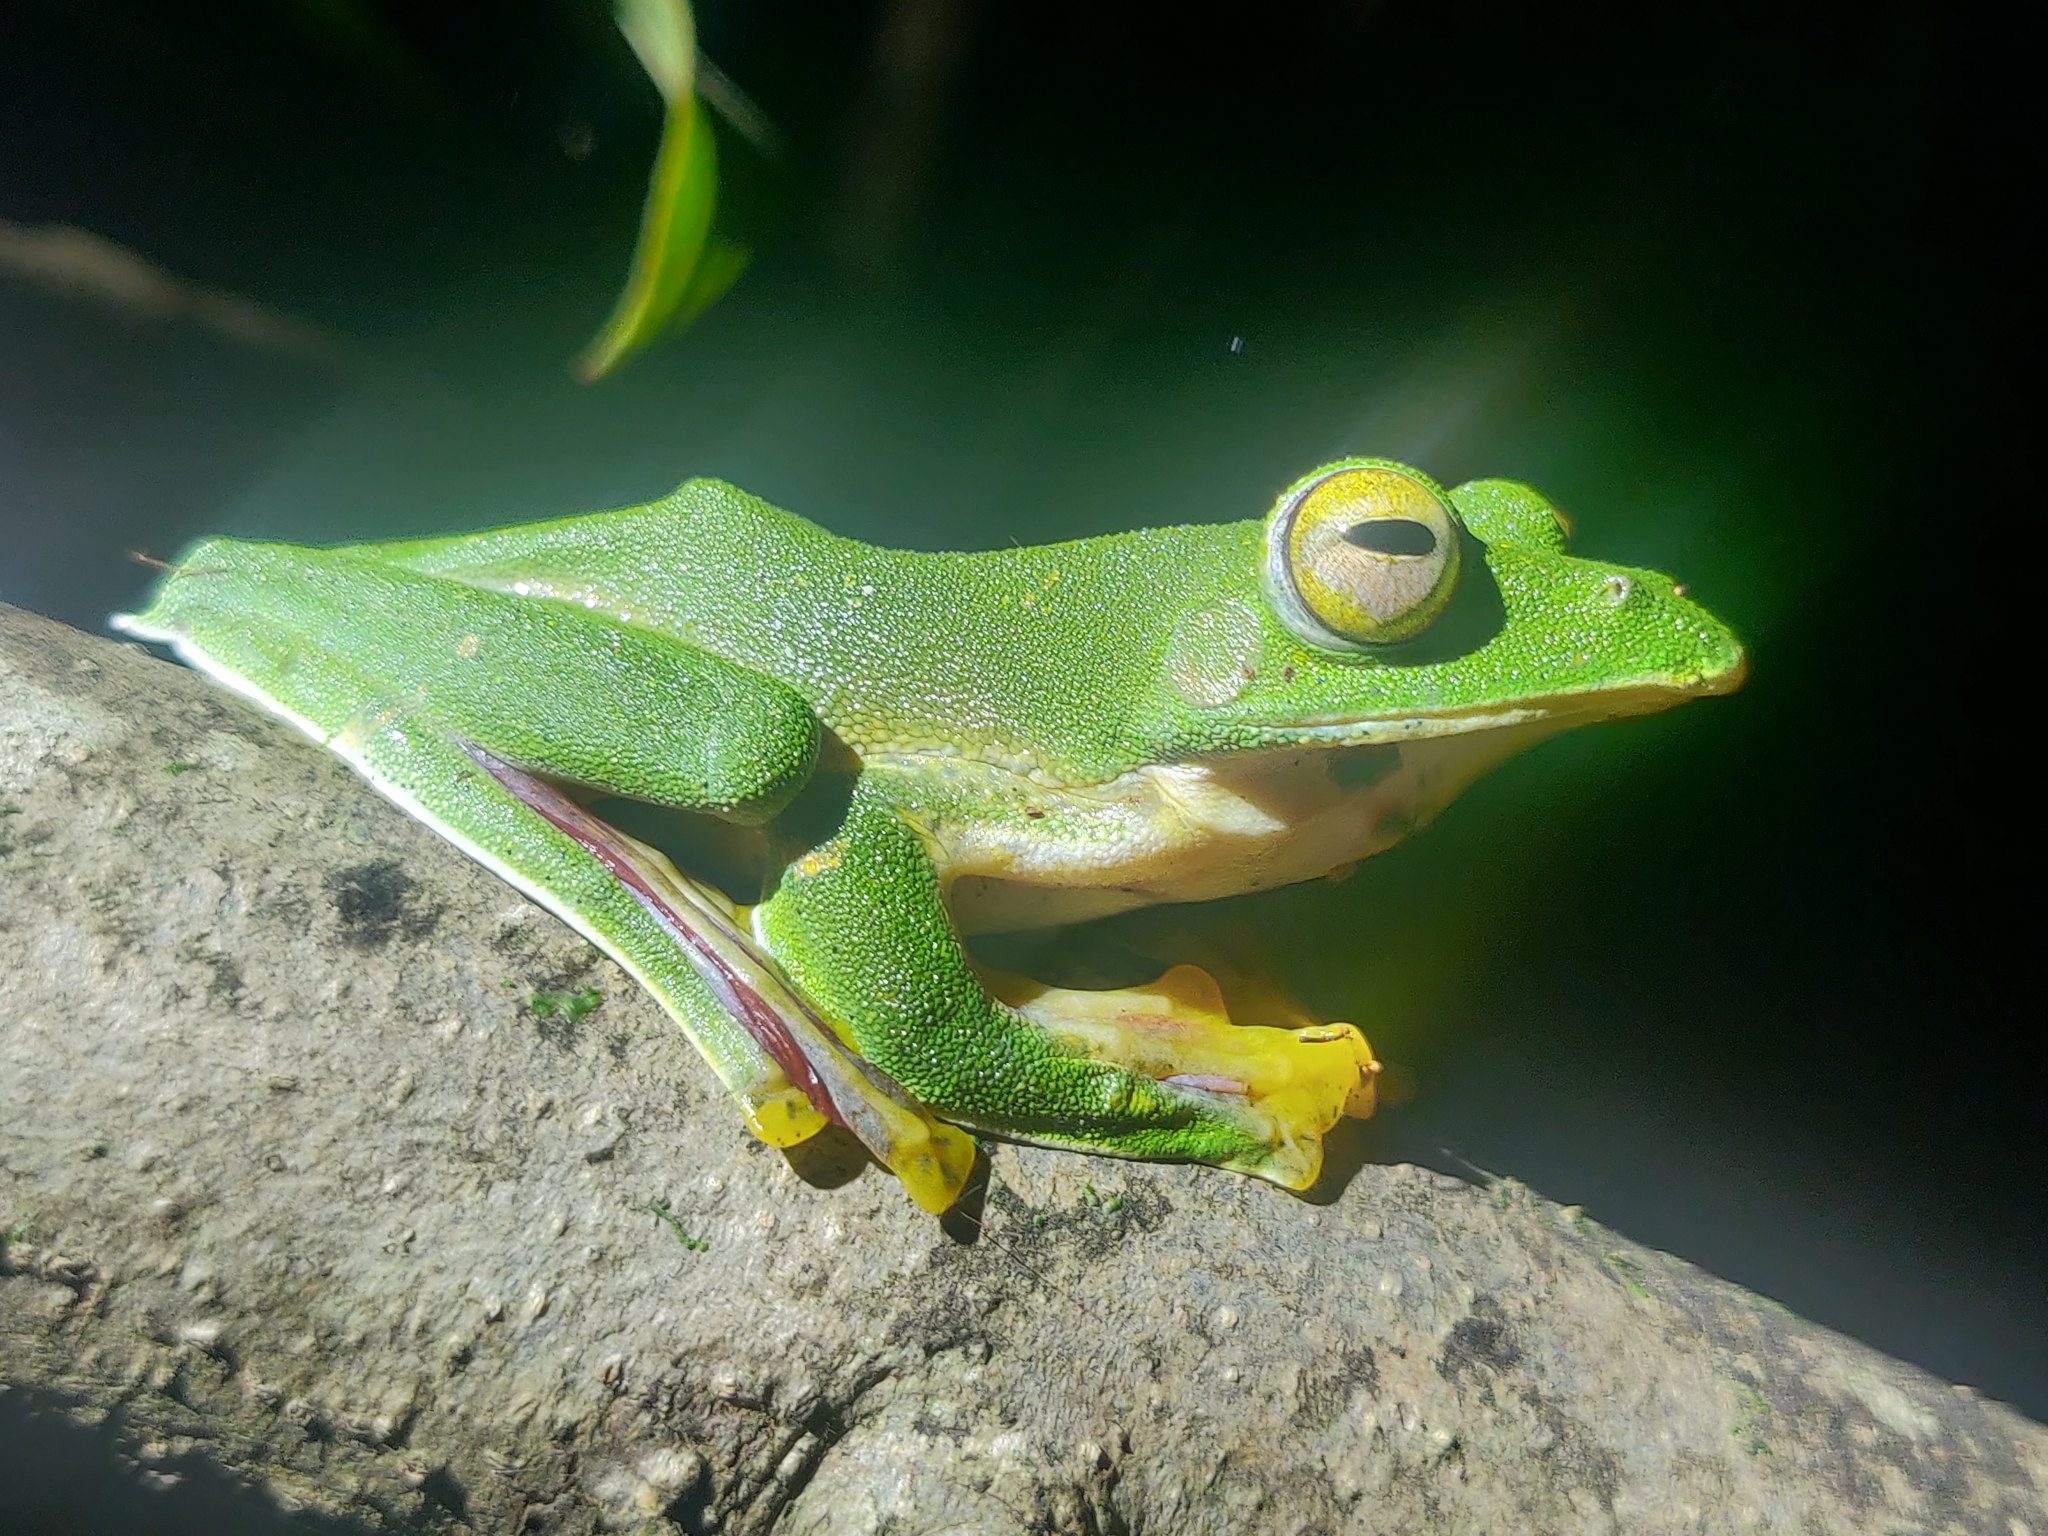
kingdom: Animalia
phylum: Chordata
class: Amphibia
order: Anura
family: Rhacophoridae
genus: Rhacophorus
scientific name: Rhacophorus malabaricus
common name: Malabar gliding frog
